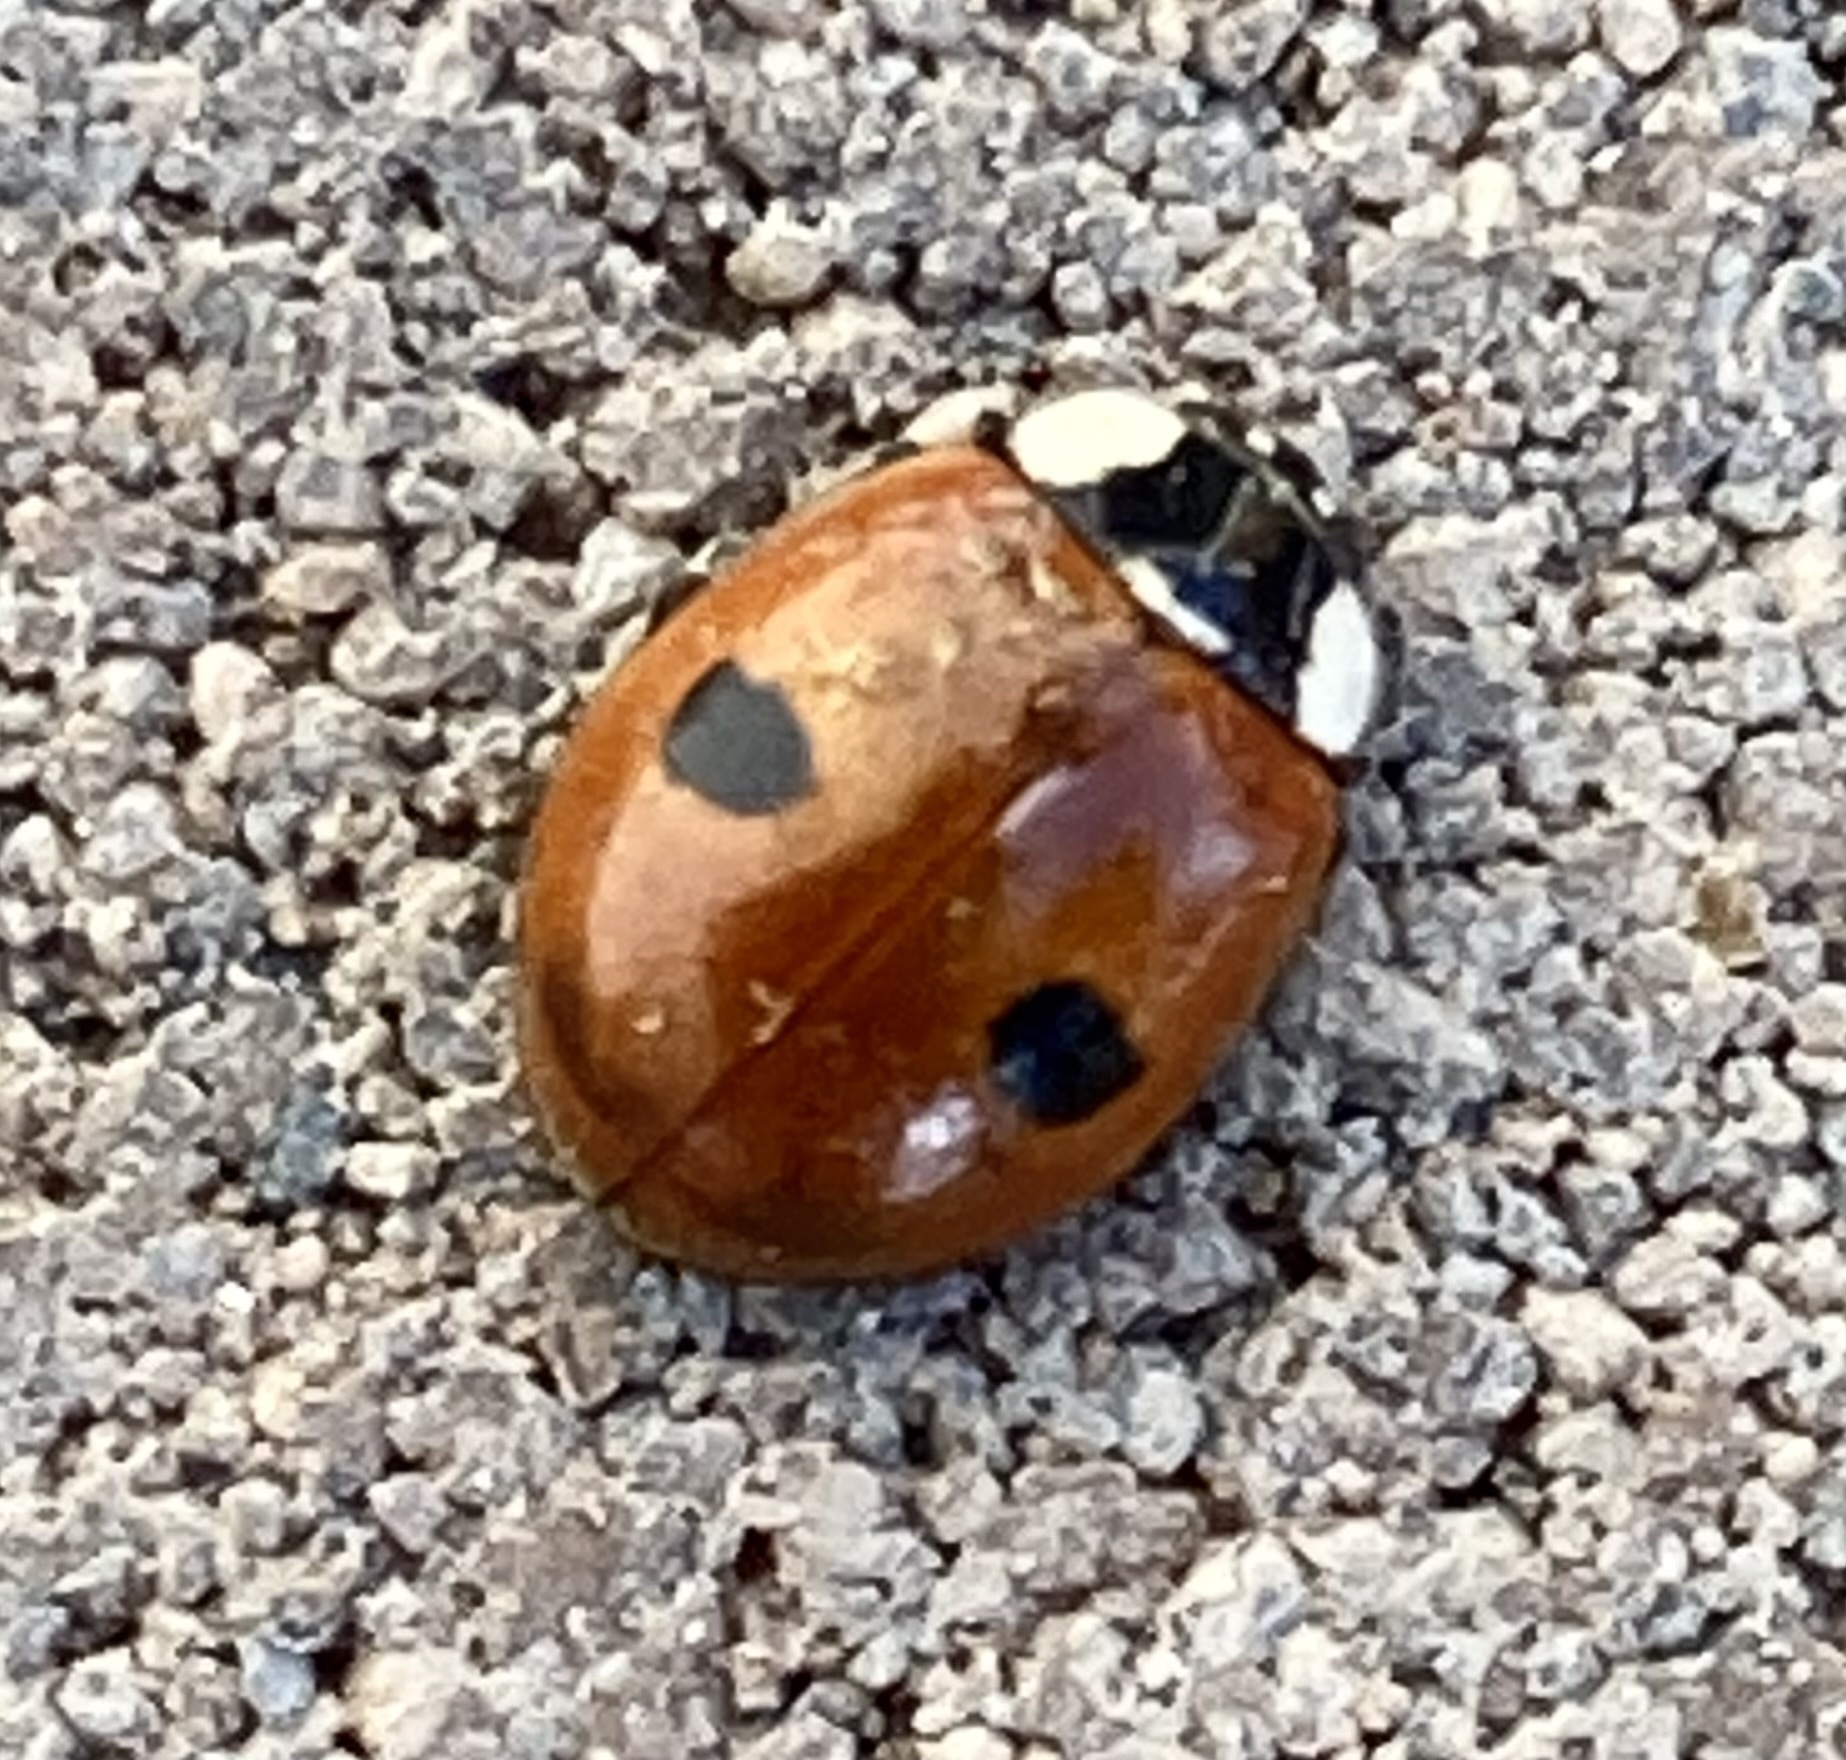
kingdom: Animalia
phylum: Arthropoda
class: Insecta
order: Coleoptera
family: Coccinellidae
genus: Adalia
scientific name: Adalia bipunctata
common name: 2-spot ladybird
